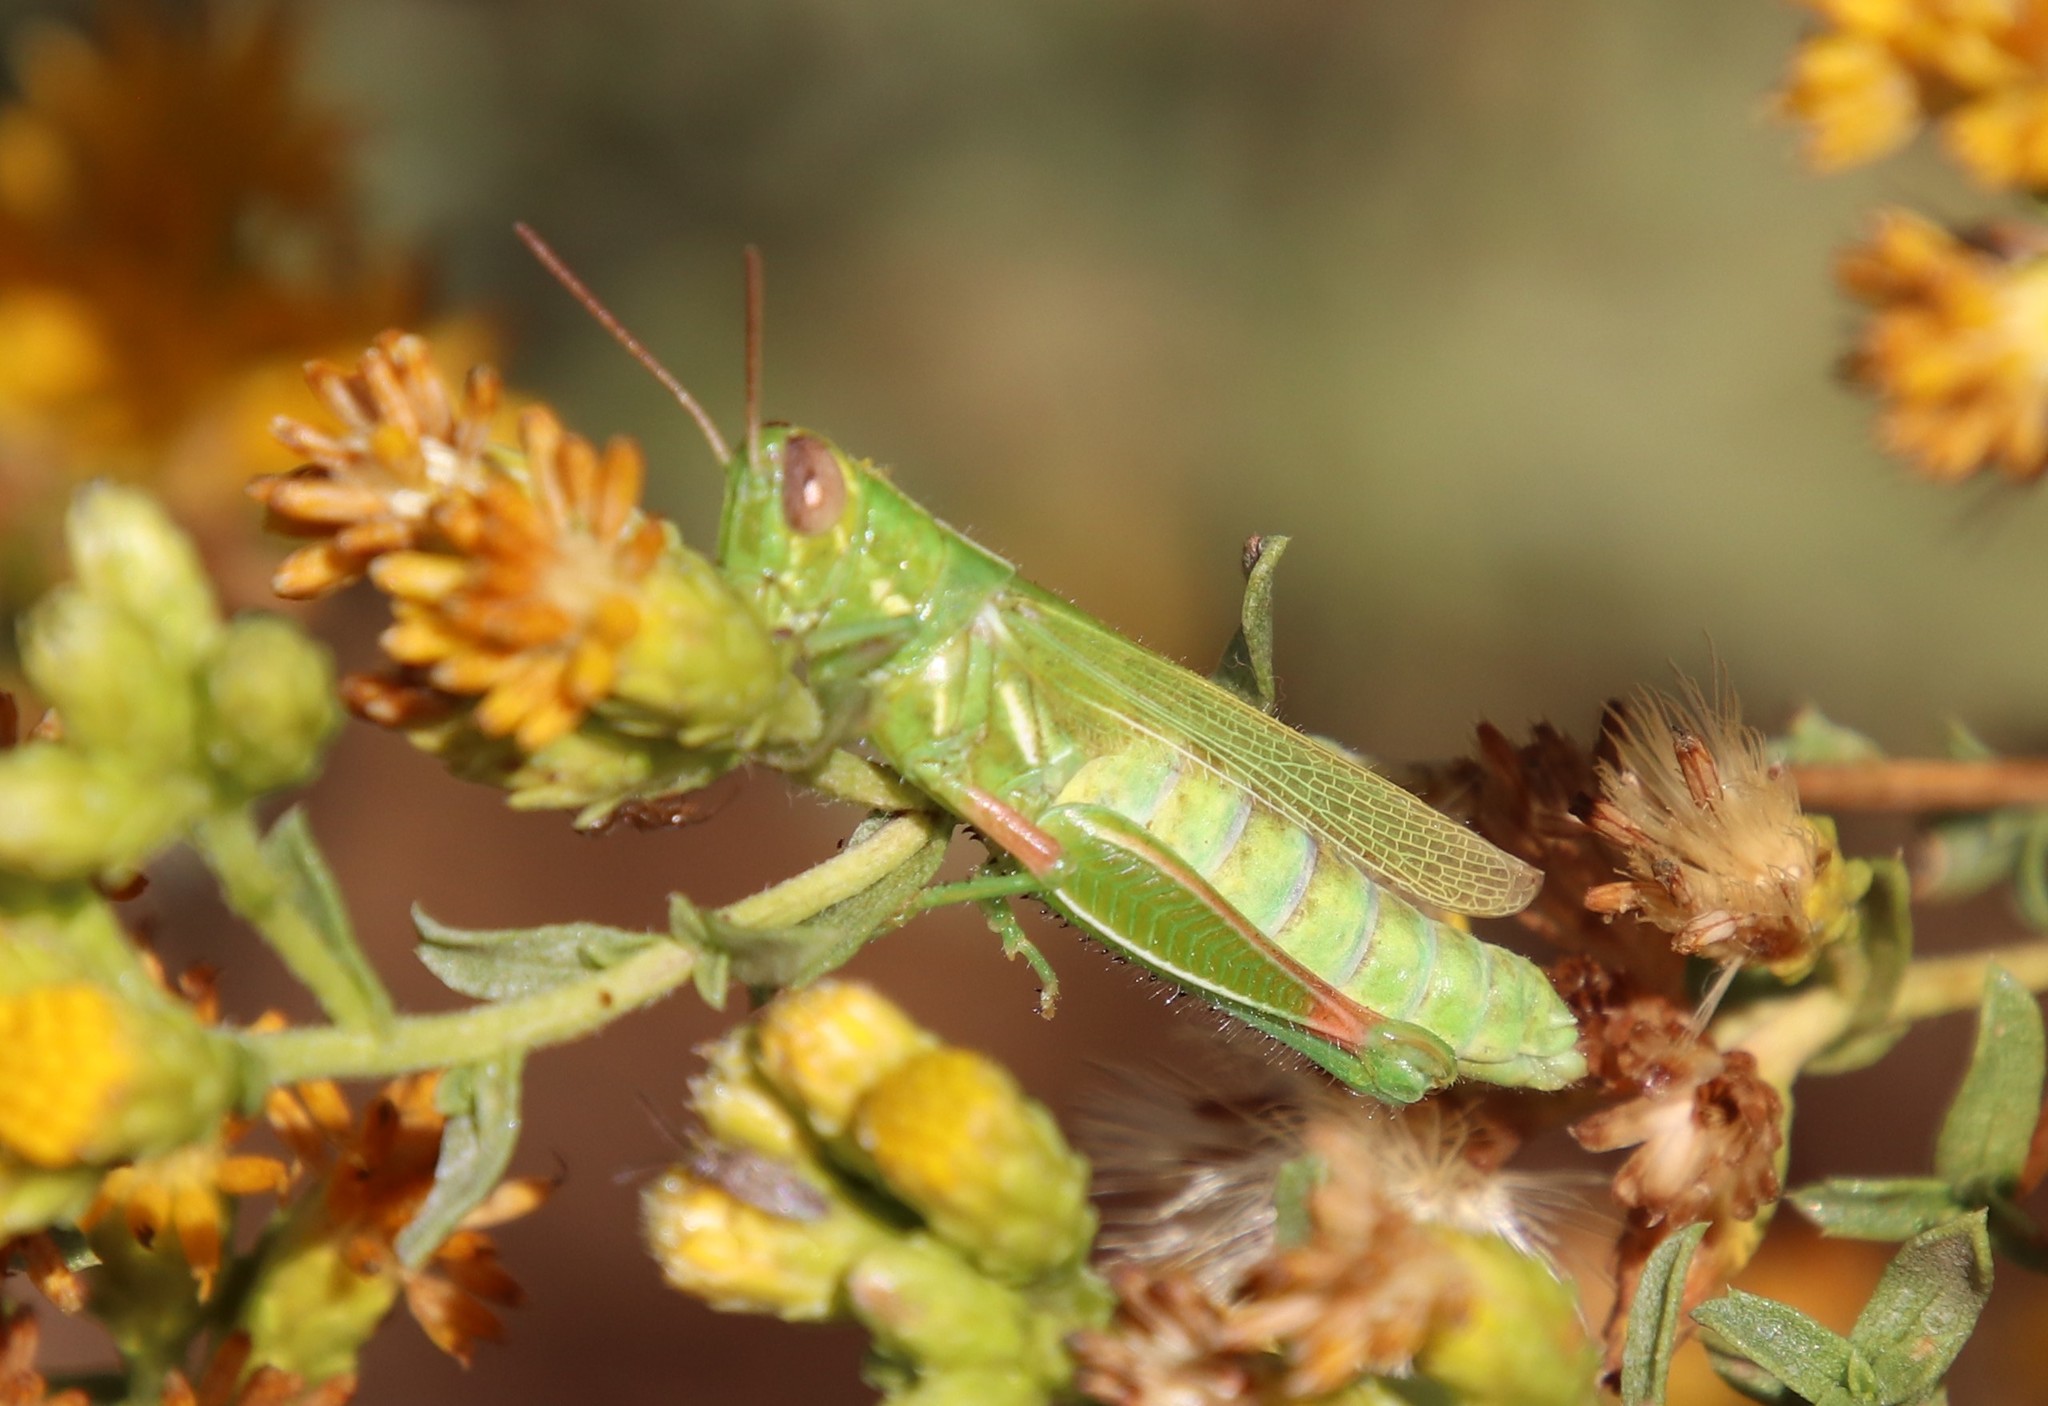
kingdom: Animalia
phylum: Arthropoda
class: Insecta
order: Orthoptera
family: Acrididae
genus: Hesperotettix
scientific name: Hesperotettix viridis
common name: Meadow purple-striped grasshopper
